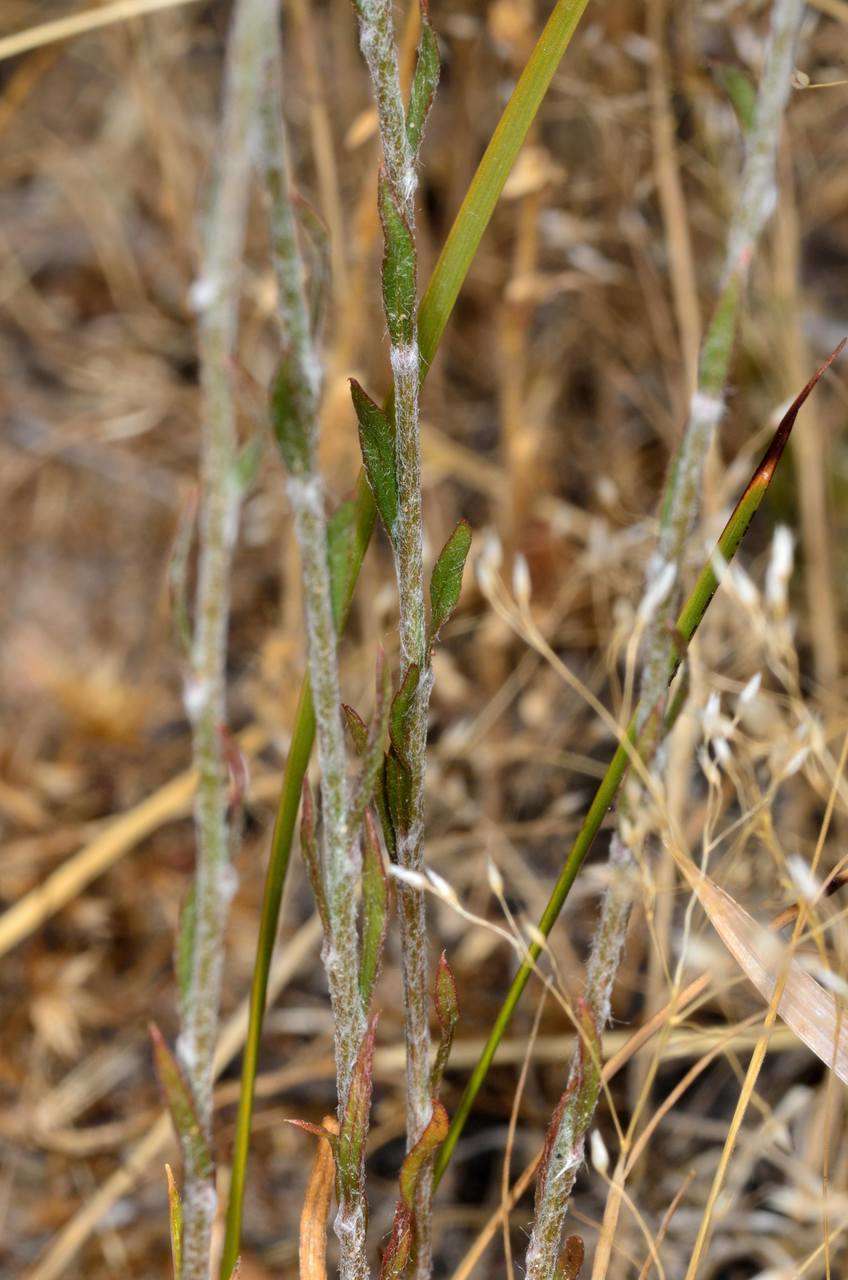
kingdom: Plantae
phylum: Tracheophyta
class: Magnoliopsida
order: Caryophyllales
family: Amaranthaceae
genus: Ptilotus
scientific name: Ptilotus erubescens
